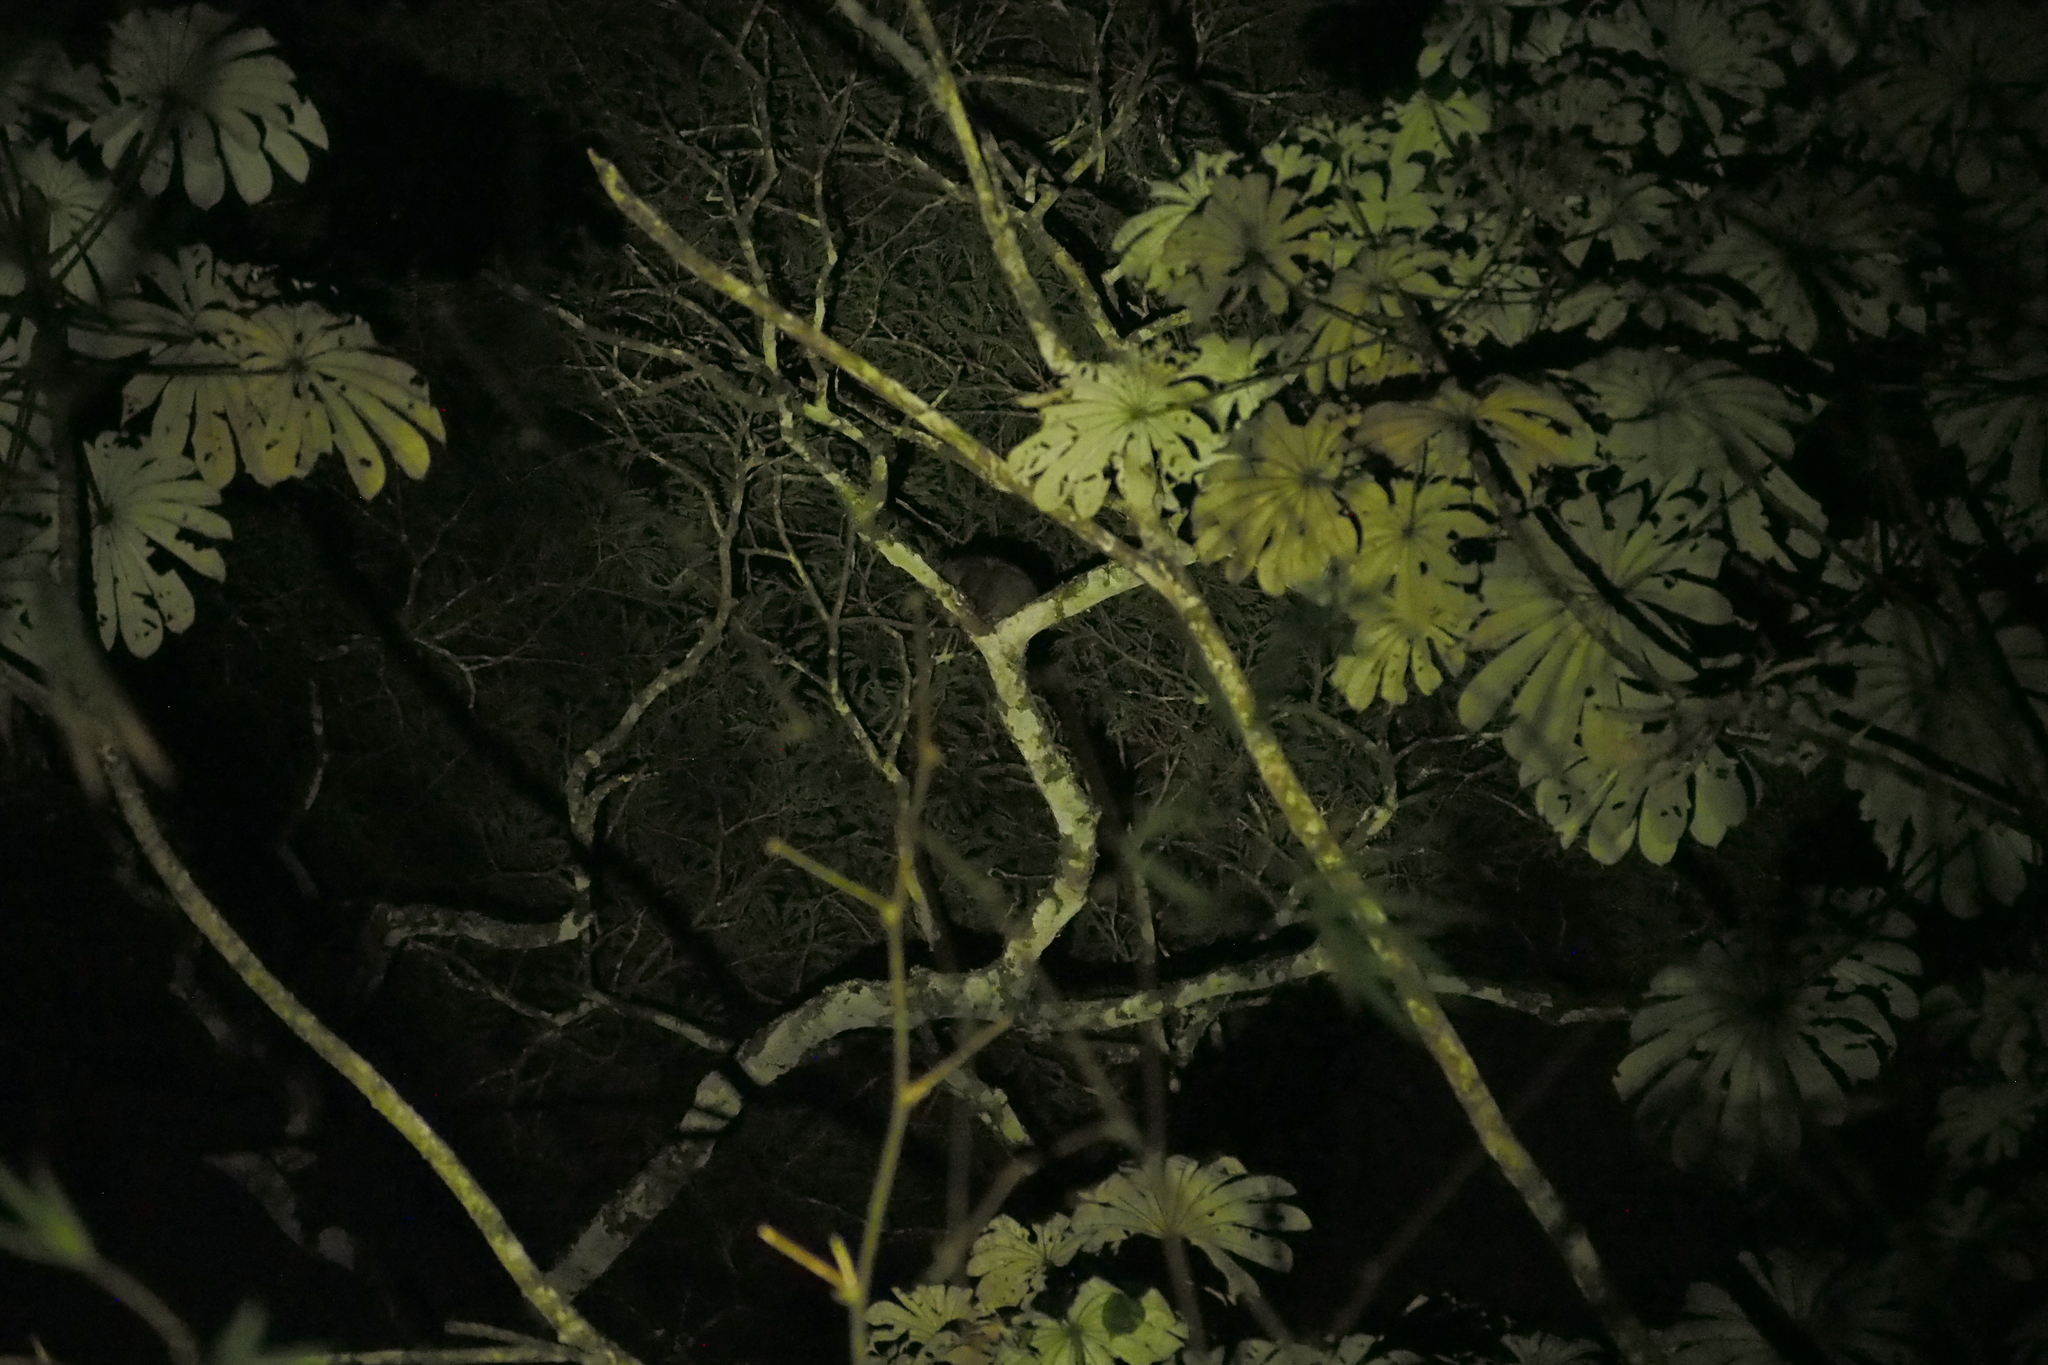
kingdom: Animalia
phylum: Chordata
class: Mammalia
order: Primates
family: Lorisidae
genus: Perodicticus
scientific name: Perodicticus edwardsi
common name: Central potto
